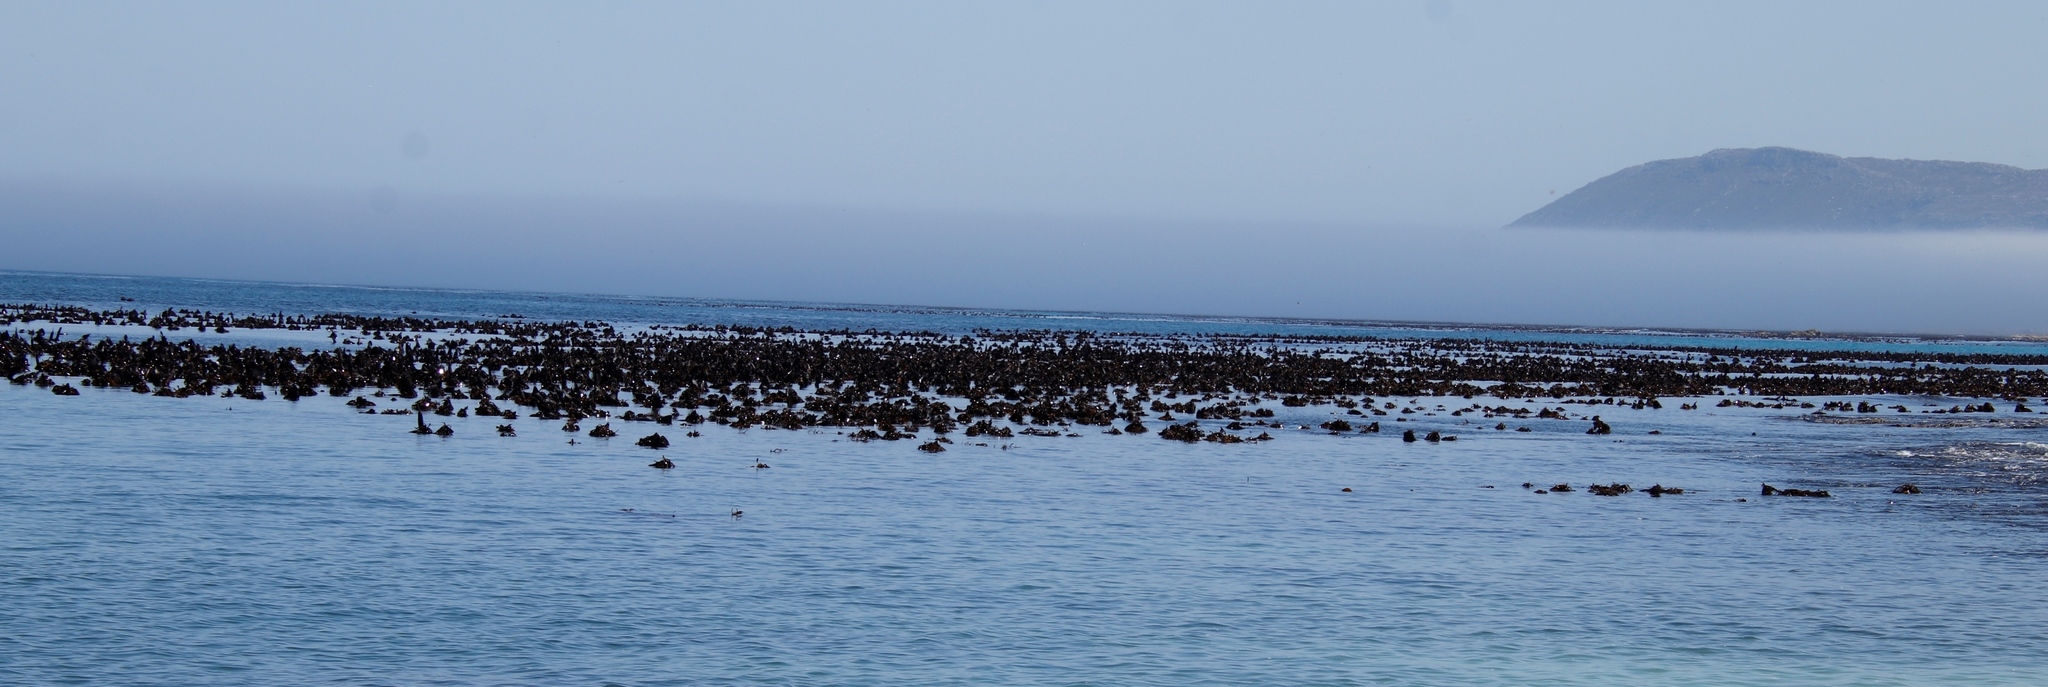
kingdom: Chromista
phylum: Ochrophyta
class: Phaeophyceae
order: Laminariales
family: Lessoniaceae
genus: Ecklonia
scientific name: Ecklonia
